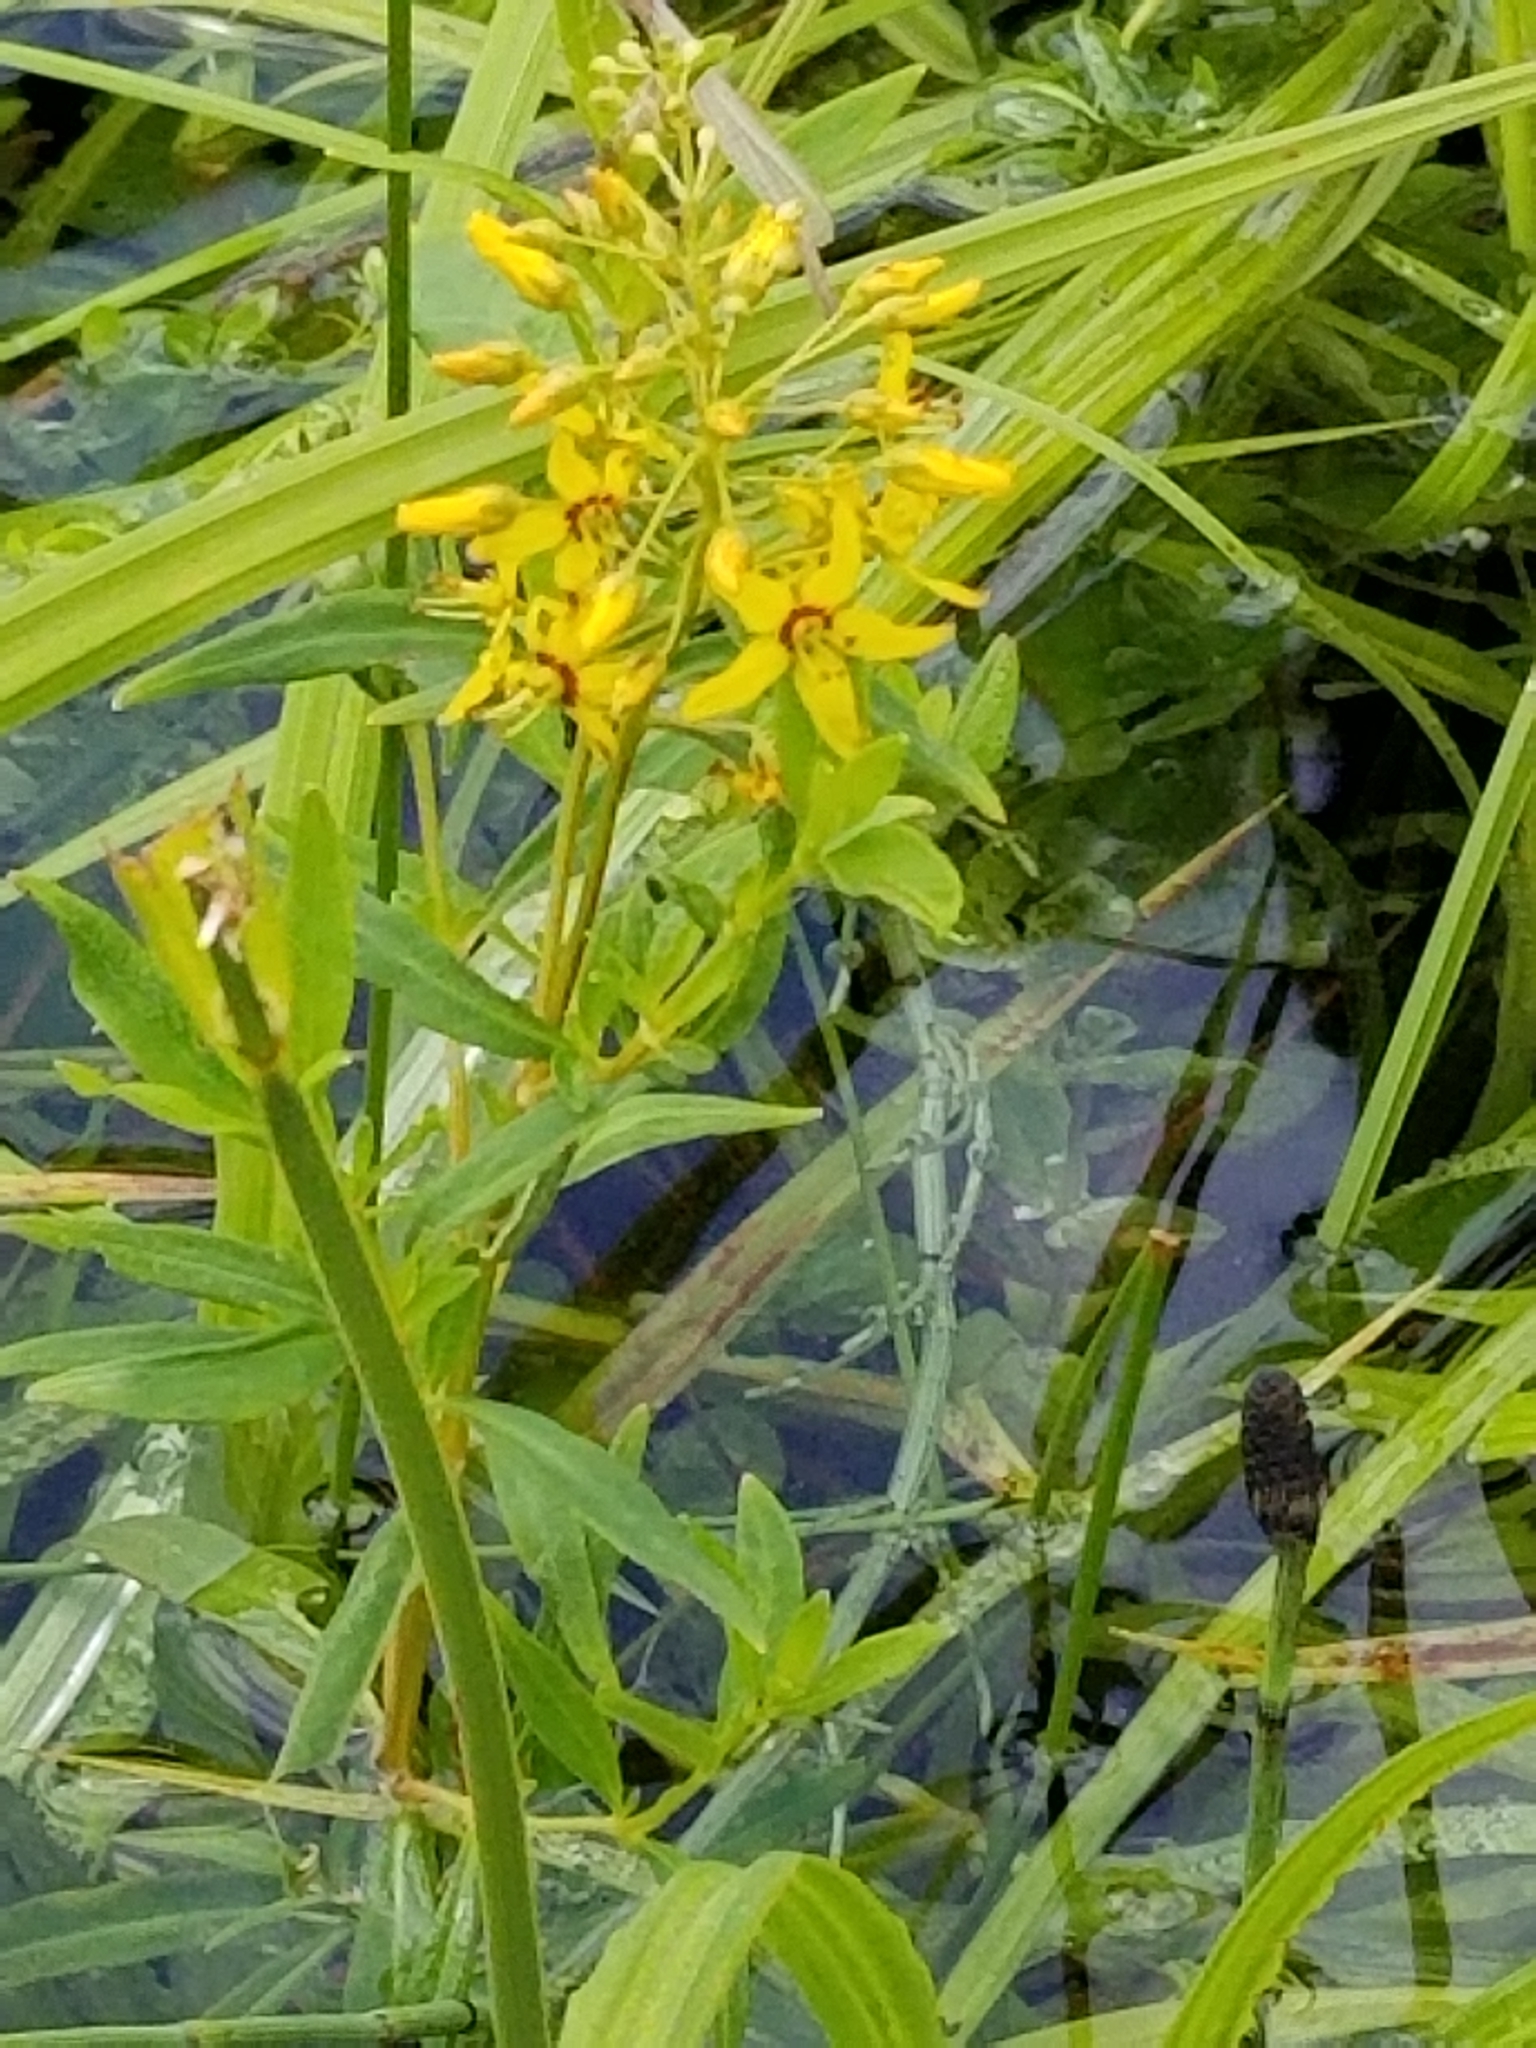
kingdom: Plantae
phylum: Tracheophyta
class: Magnoliopsida
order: Ericales
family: Primulaceae
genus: Lysimachia
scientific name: Lysimachia terrestris
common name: Lake loosestrife
